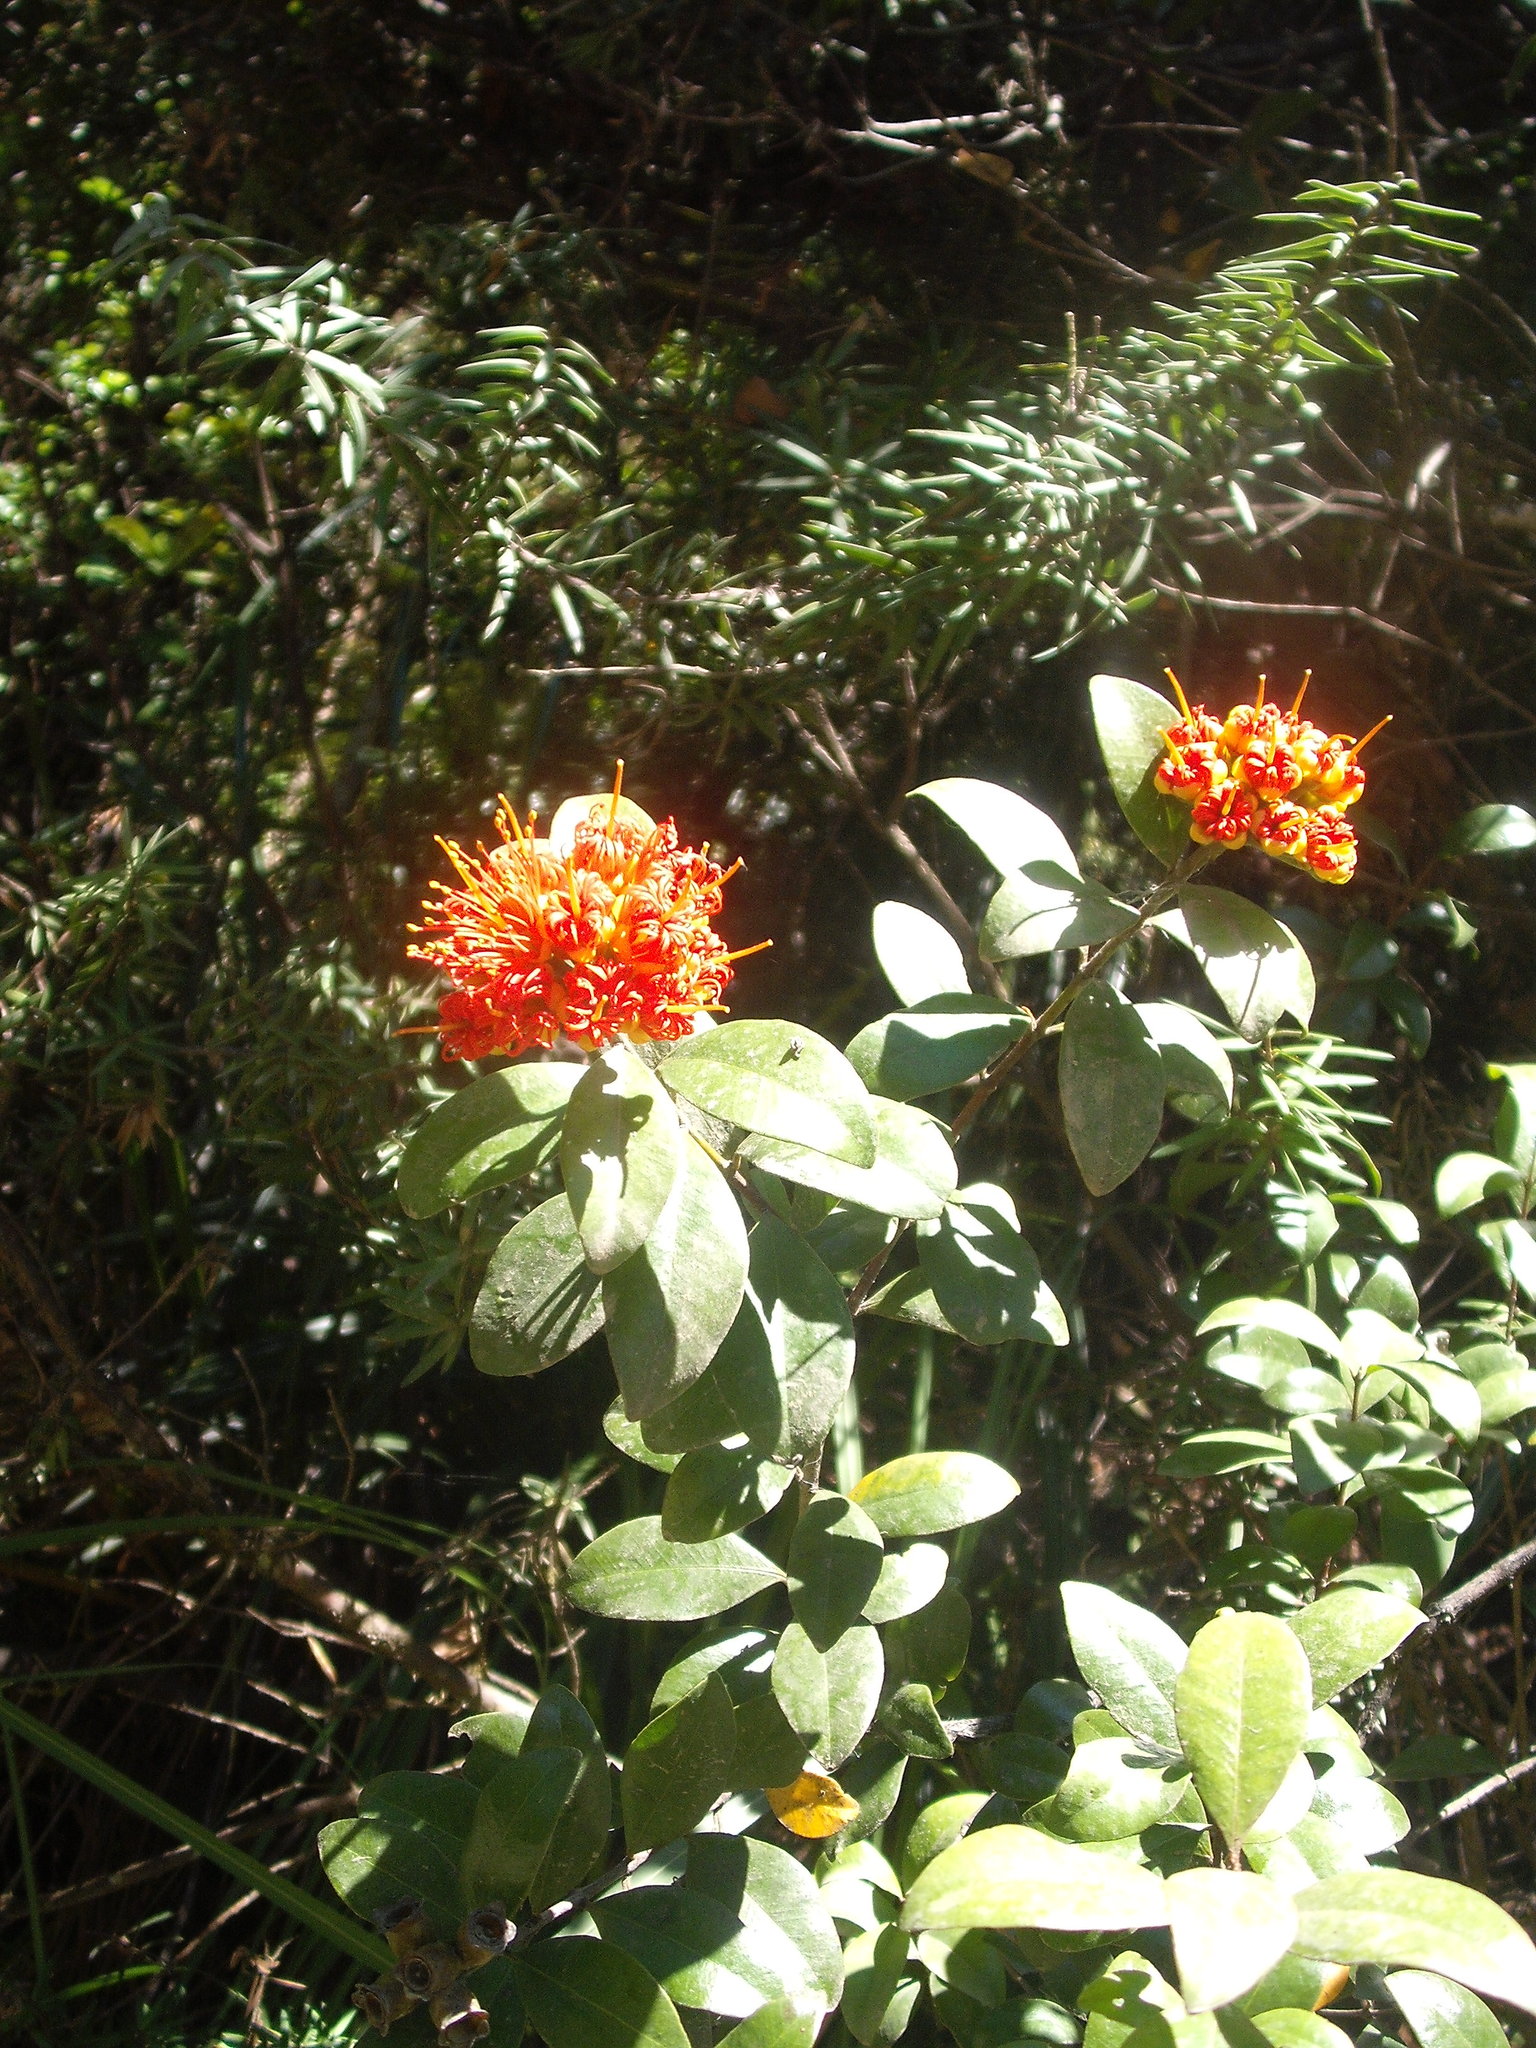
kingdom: Plantae
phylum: Tracheophyta
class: Magnoliopsida
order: Myrtales
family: Myrtaceae
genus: Metrosideros
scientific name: Metrosideros fulgens
